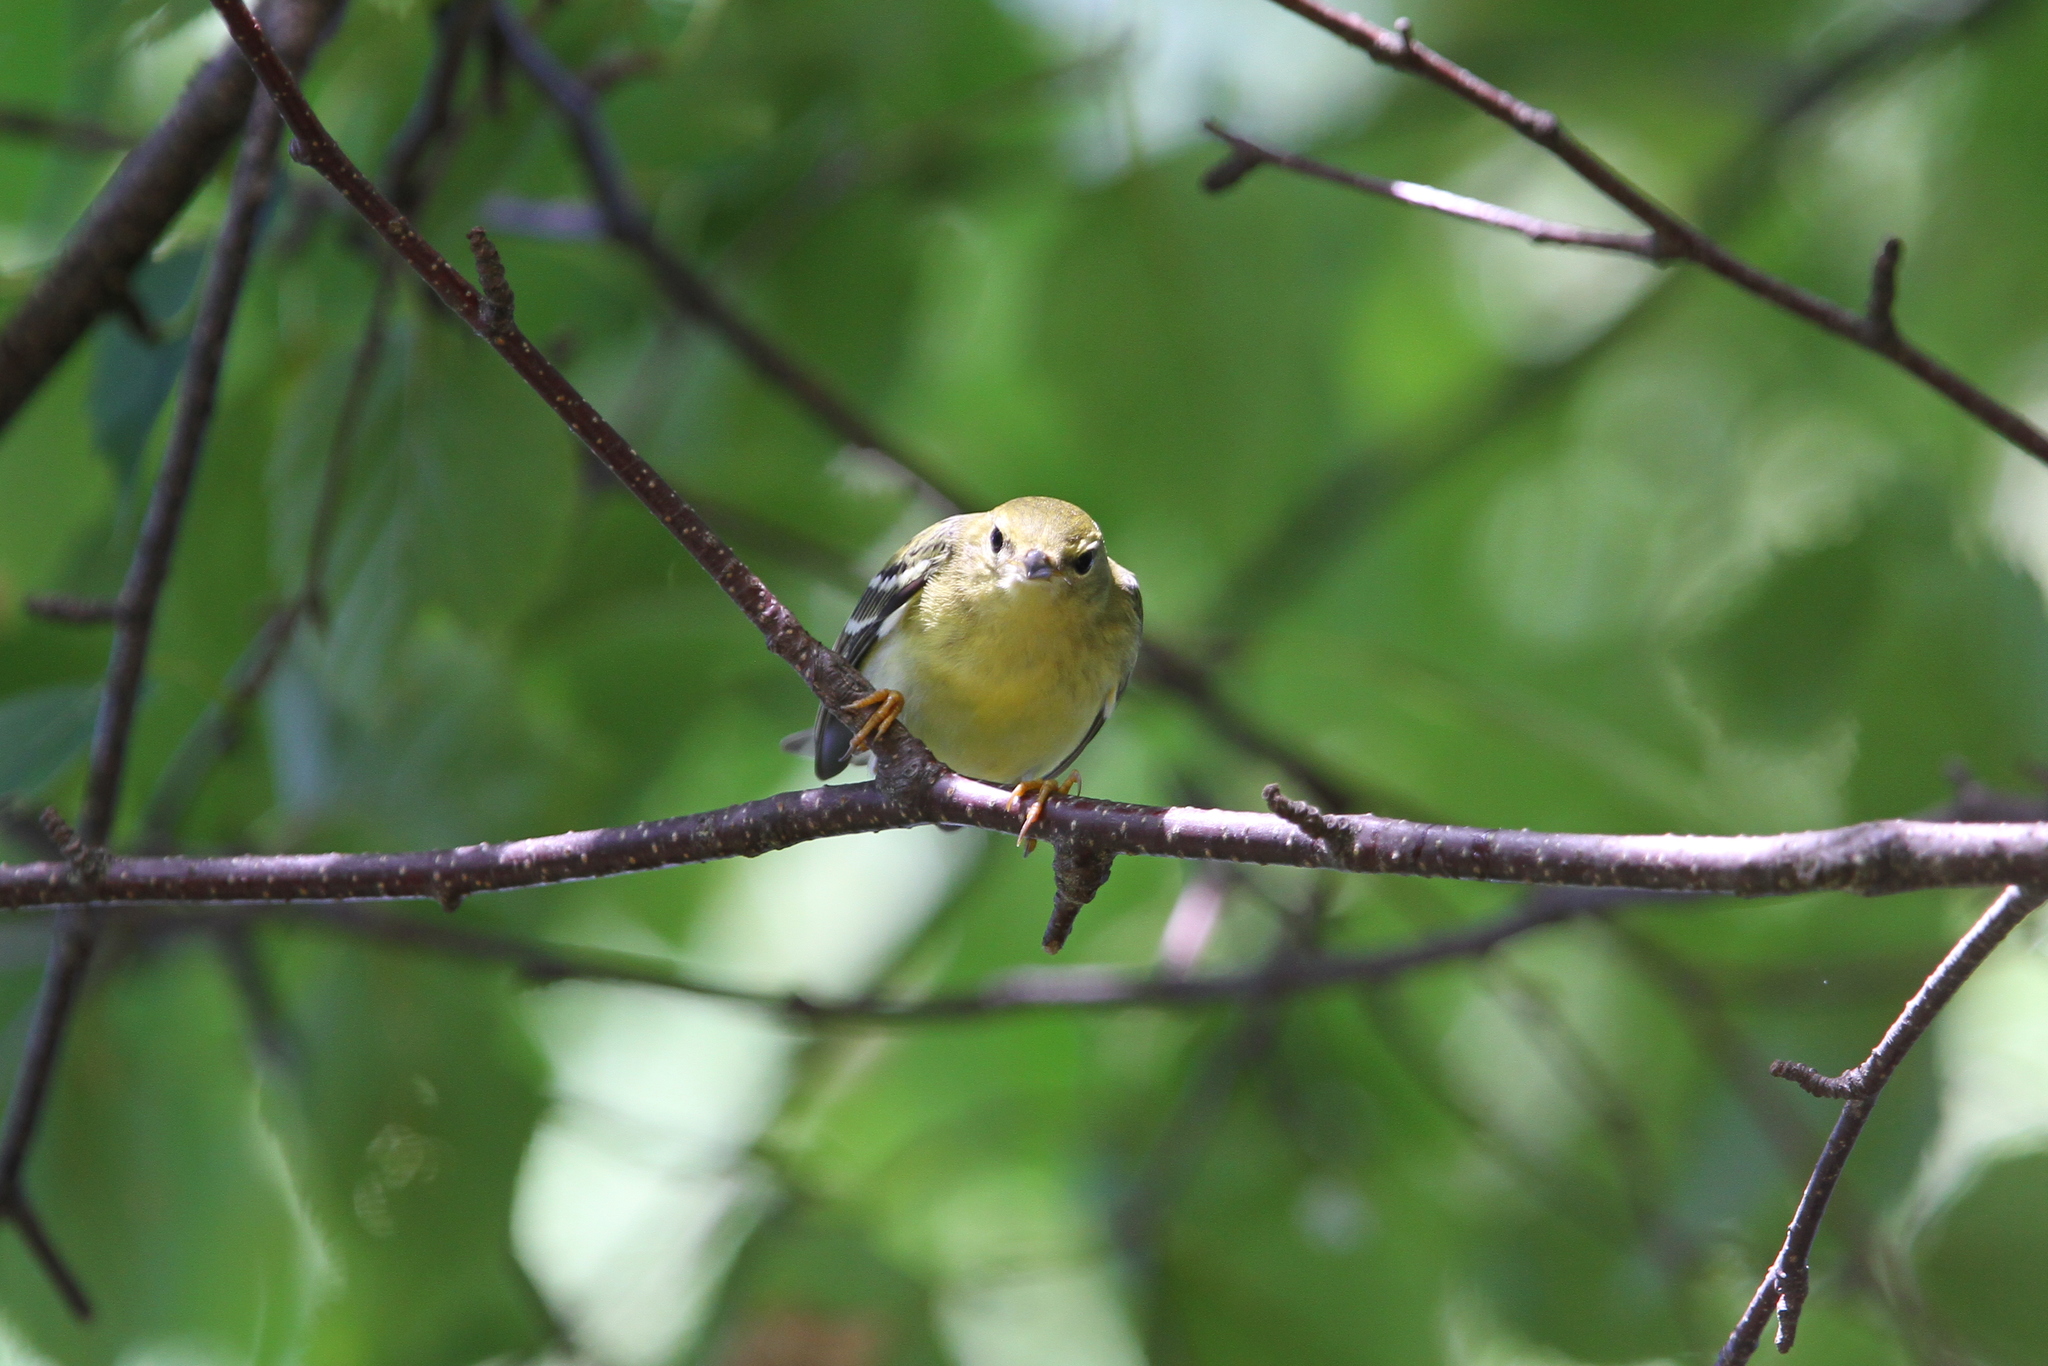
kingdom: Animalia
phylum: Chordata
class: Aves
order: Passeriformes
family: Parulidae
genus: Setophaga
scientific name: Setophaga striata
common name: Blackpoll warbler
